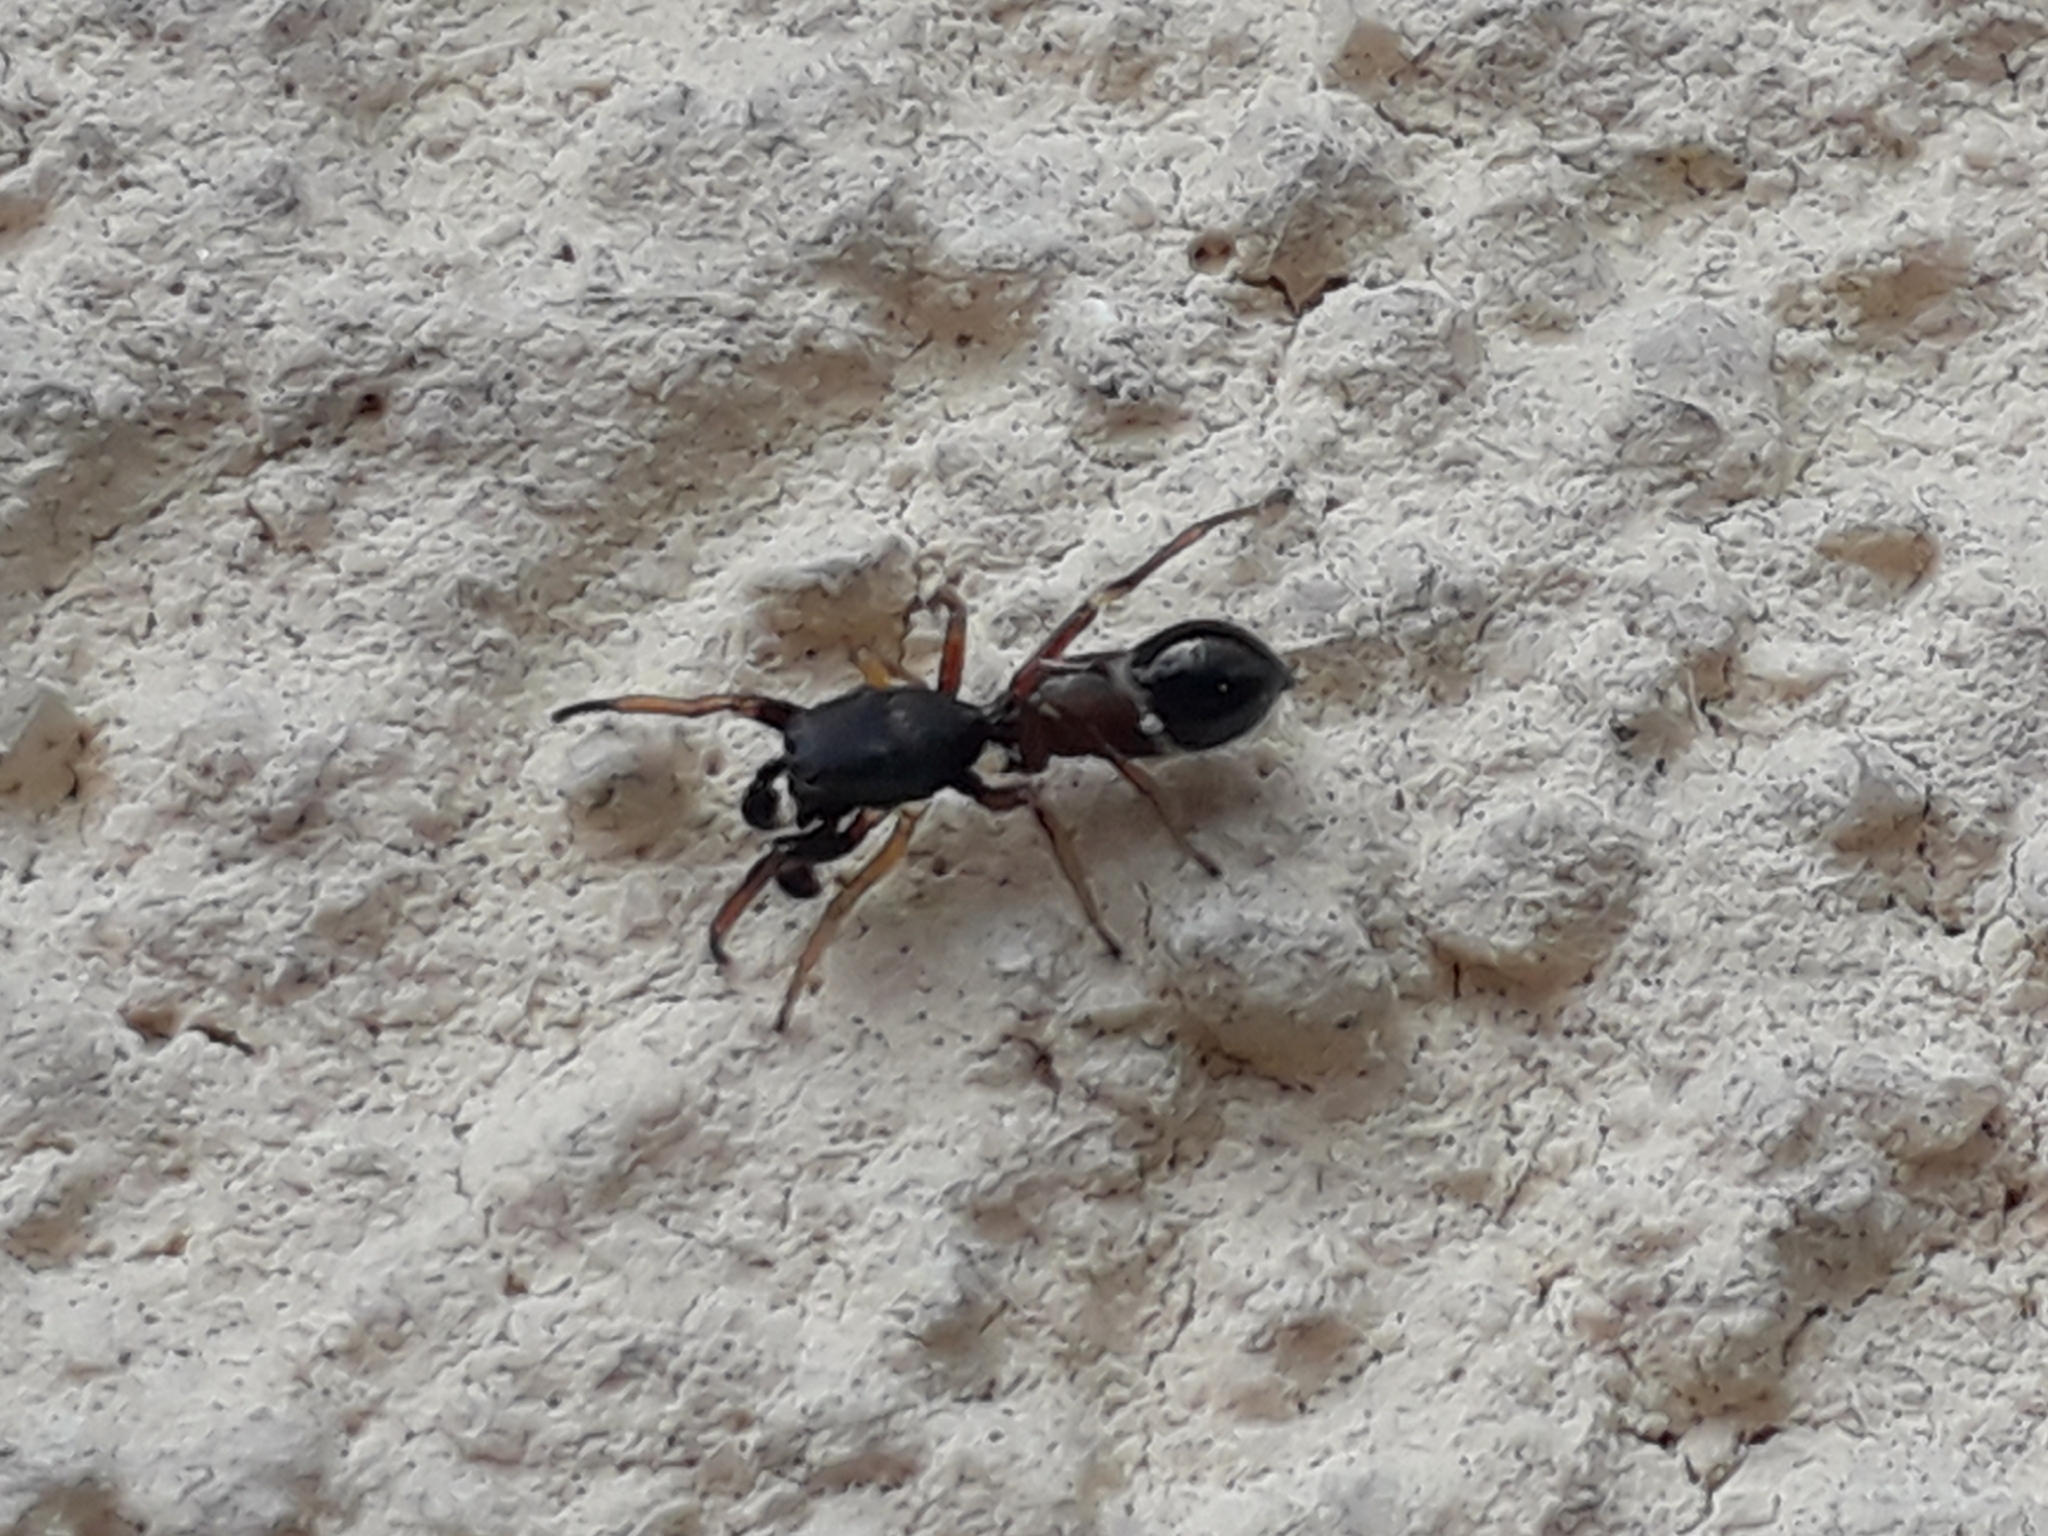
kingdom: Animalia
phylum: Arthropoda
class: Arachnida
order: Araneae
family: Salticidae
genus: Leptorchestes
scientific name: Leptorchestes berolinensis
